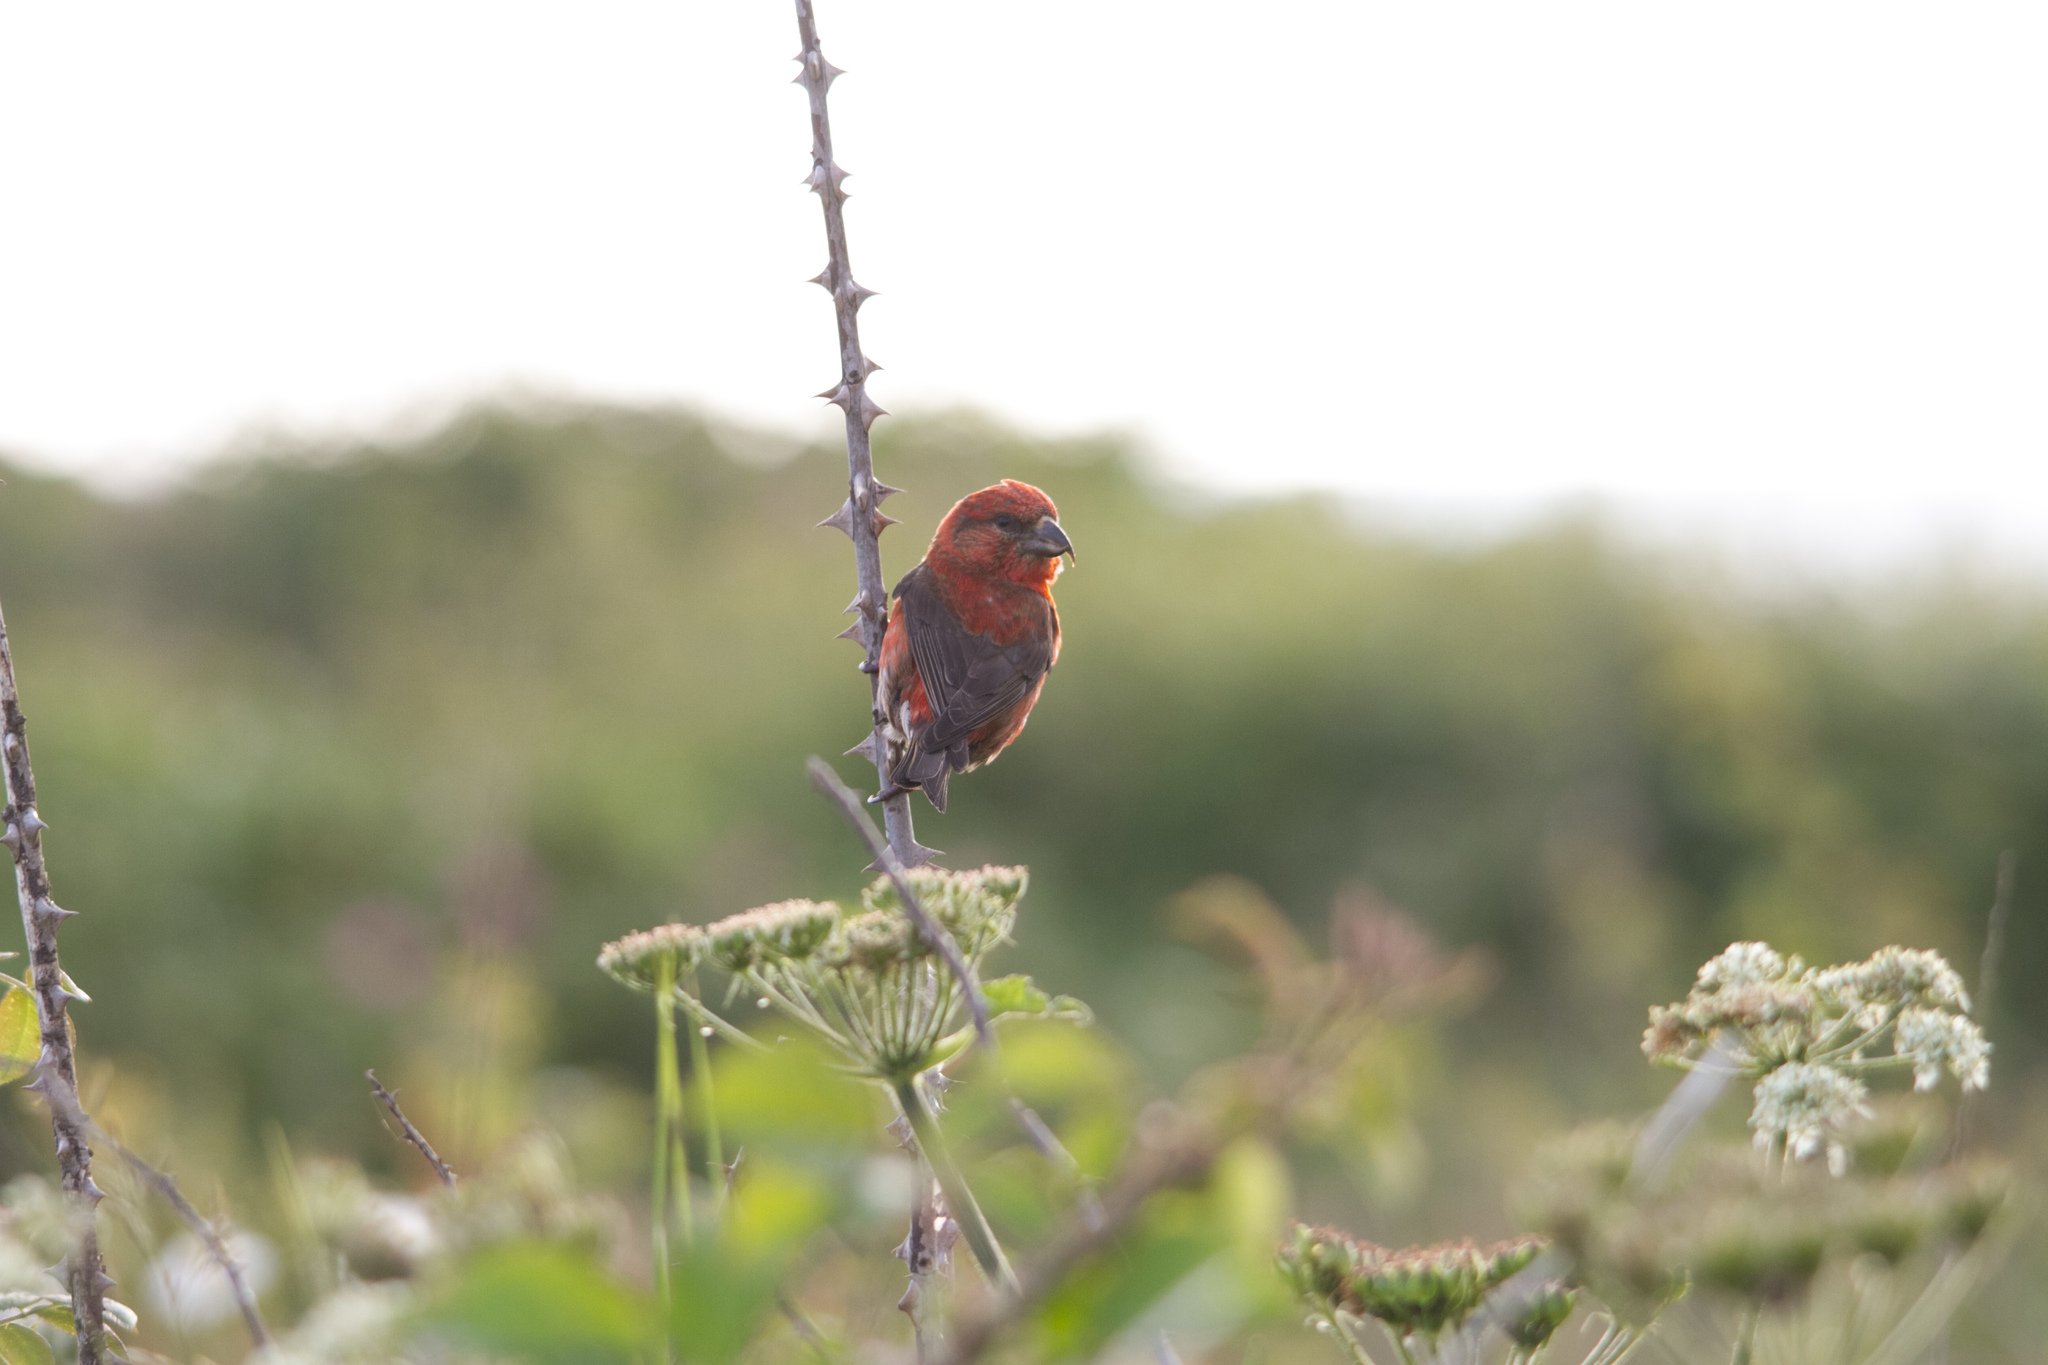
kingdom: Animalia
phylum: Chordata
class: Aves
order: Passeriformes
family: Fringillidae
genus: Loxia
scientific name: Loxia curvirostra
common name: Red crossbill
